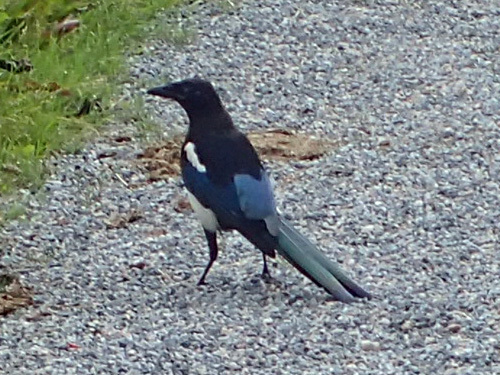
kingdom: Animalia
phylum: Chordata
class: Aves
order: Passeriformes
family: Corvidae
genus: Pica
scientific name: Pica pica
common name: Eurasian magpie
